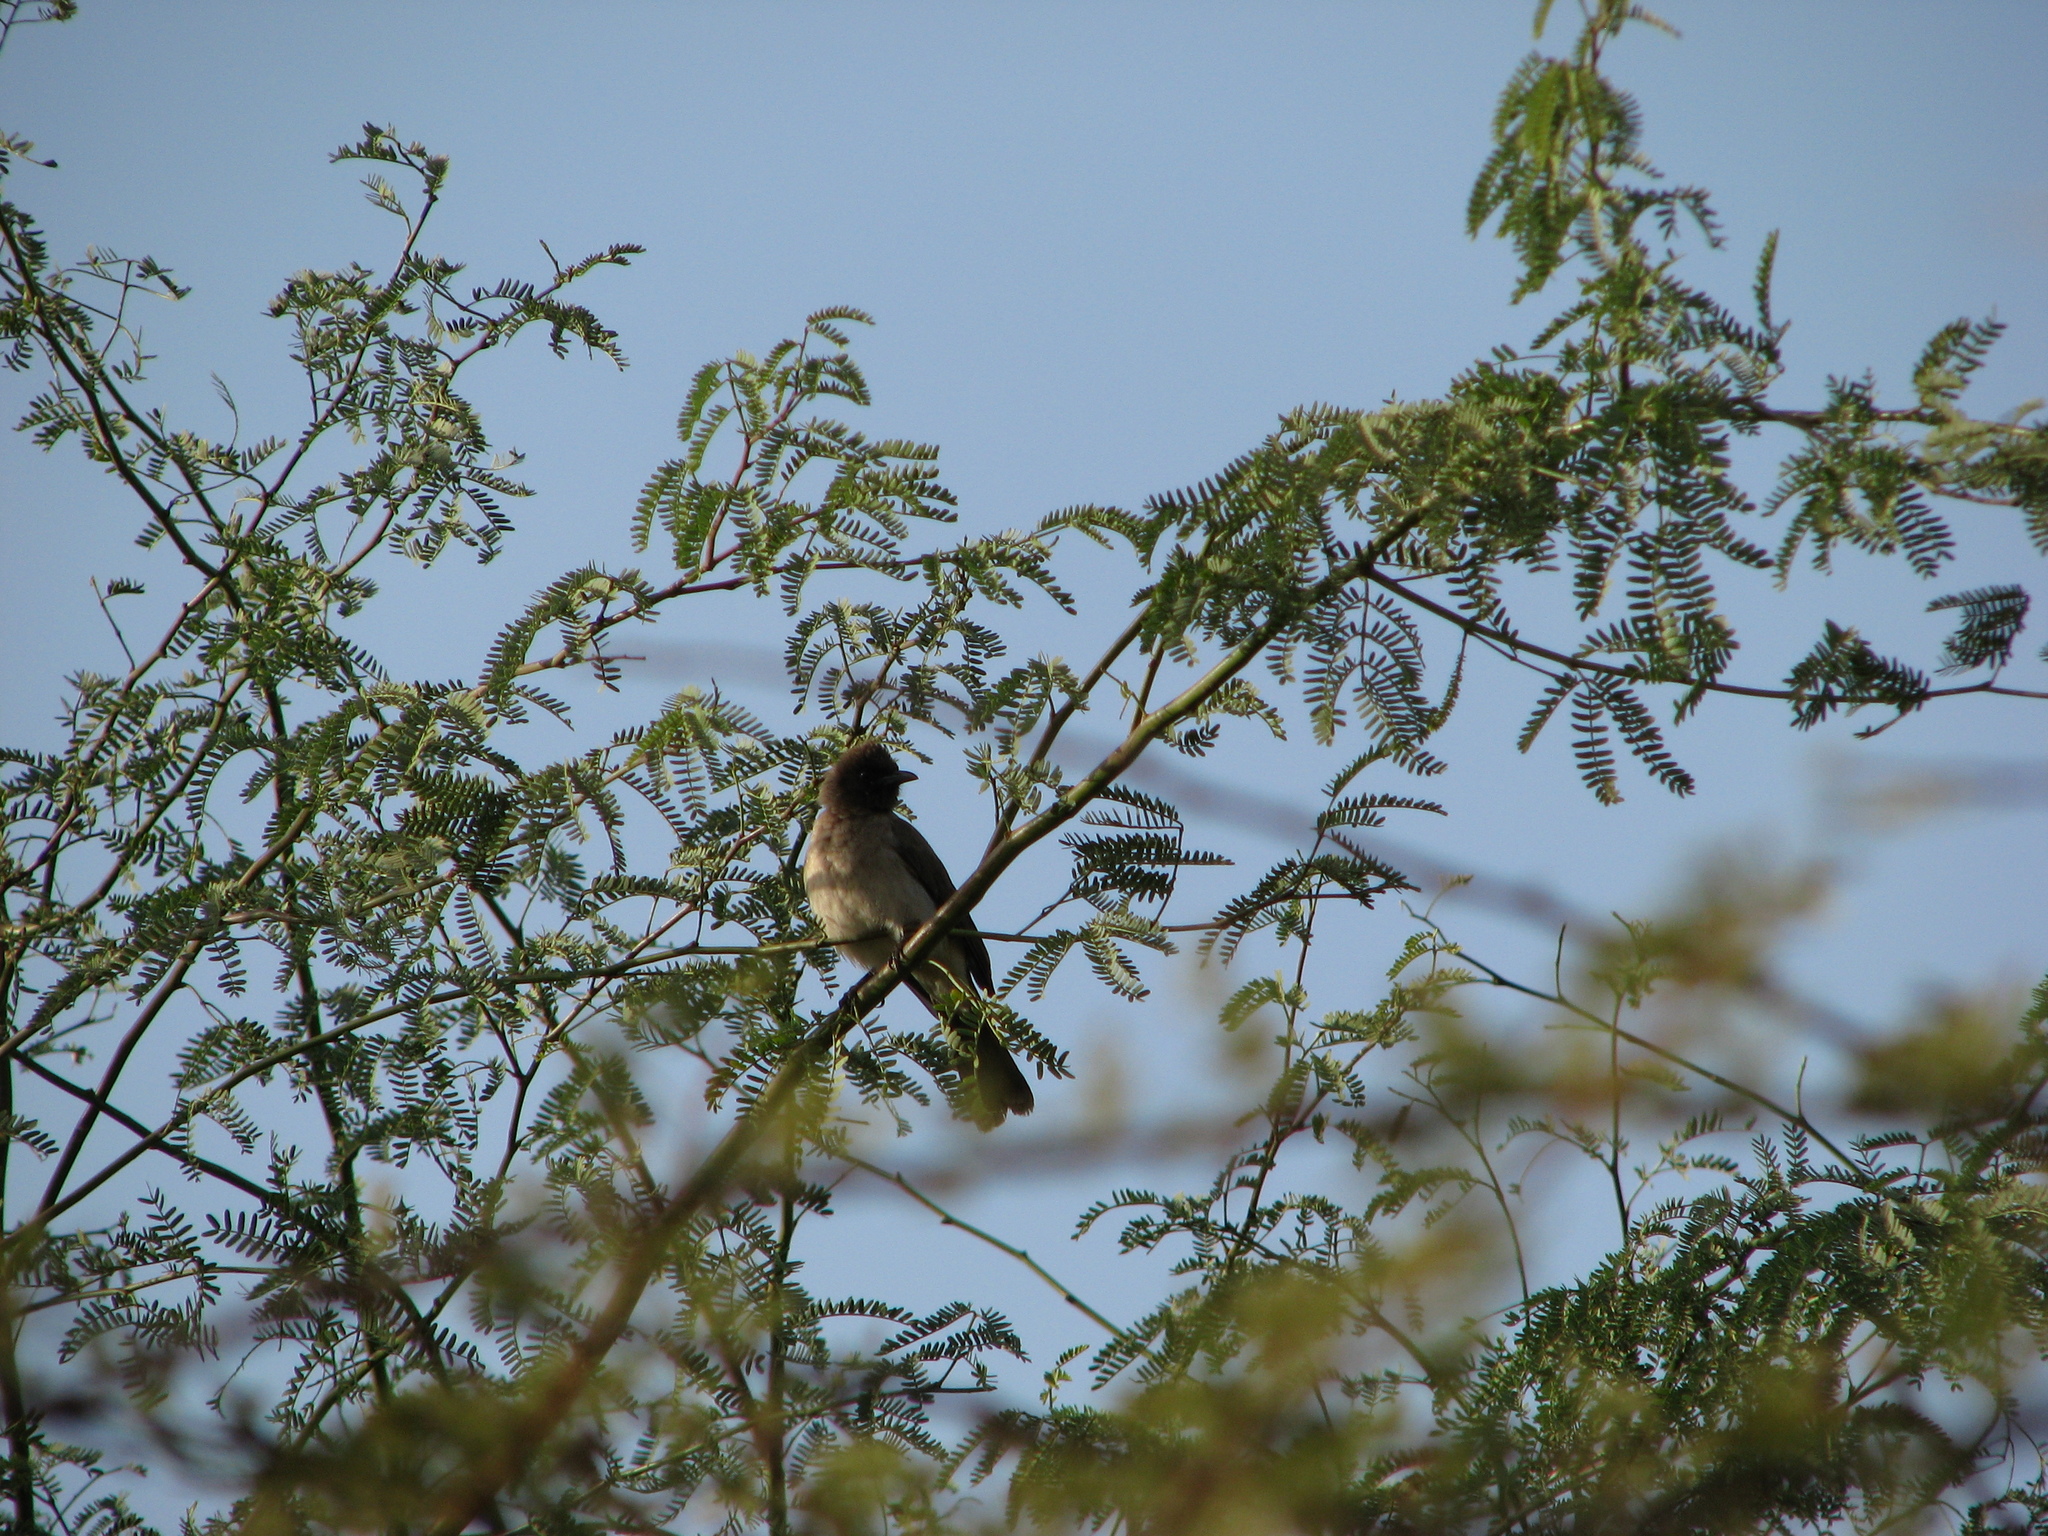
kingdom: Animalia
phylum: Chordata
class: Aves
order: Passeriformes
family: Pycnonotidae
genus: Pycnonotus
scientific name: Pycnonotus barbatus
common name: Common bulbul
